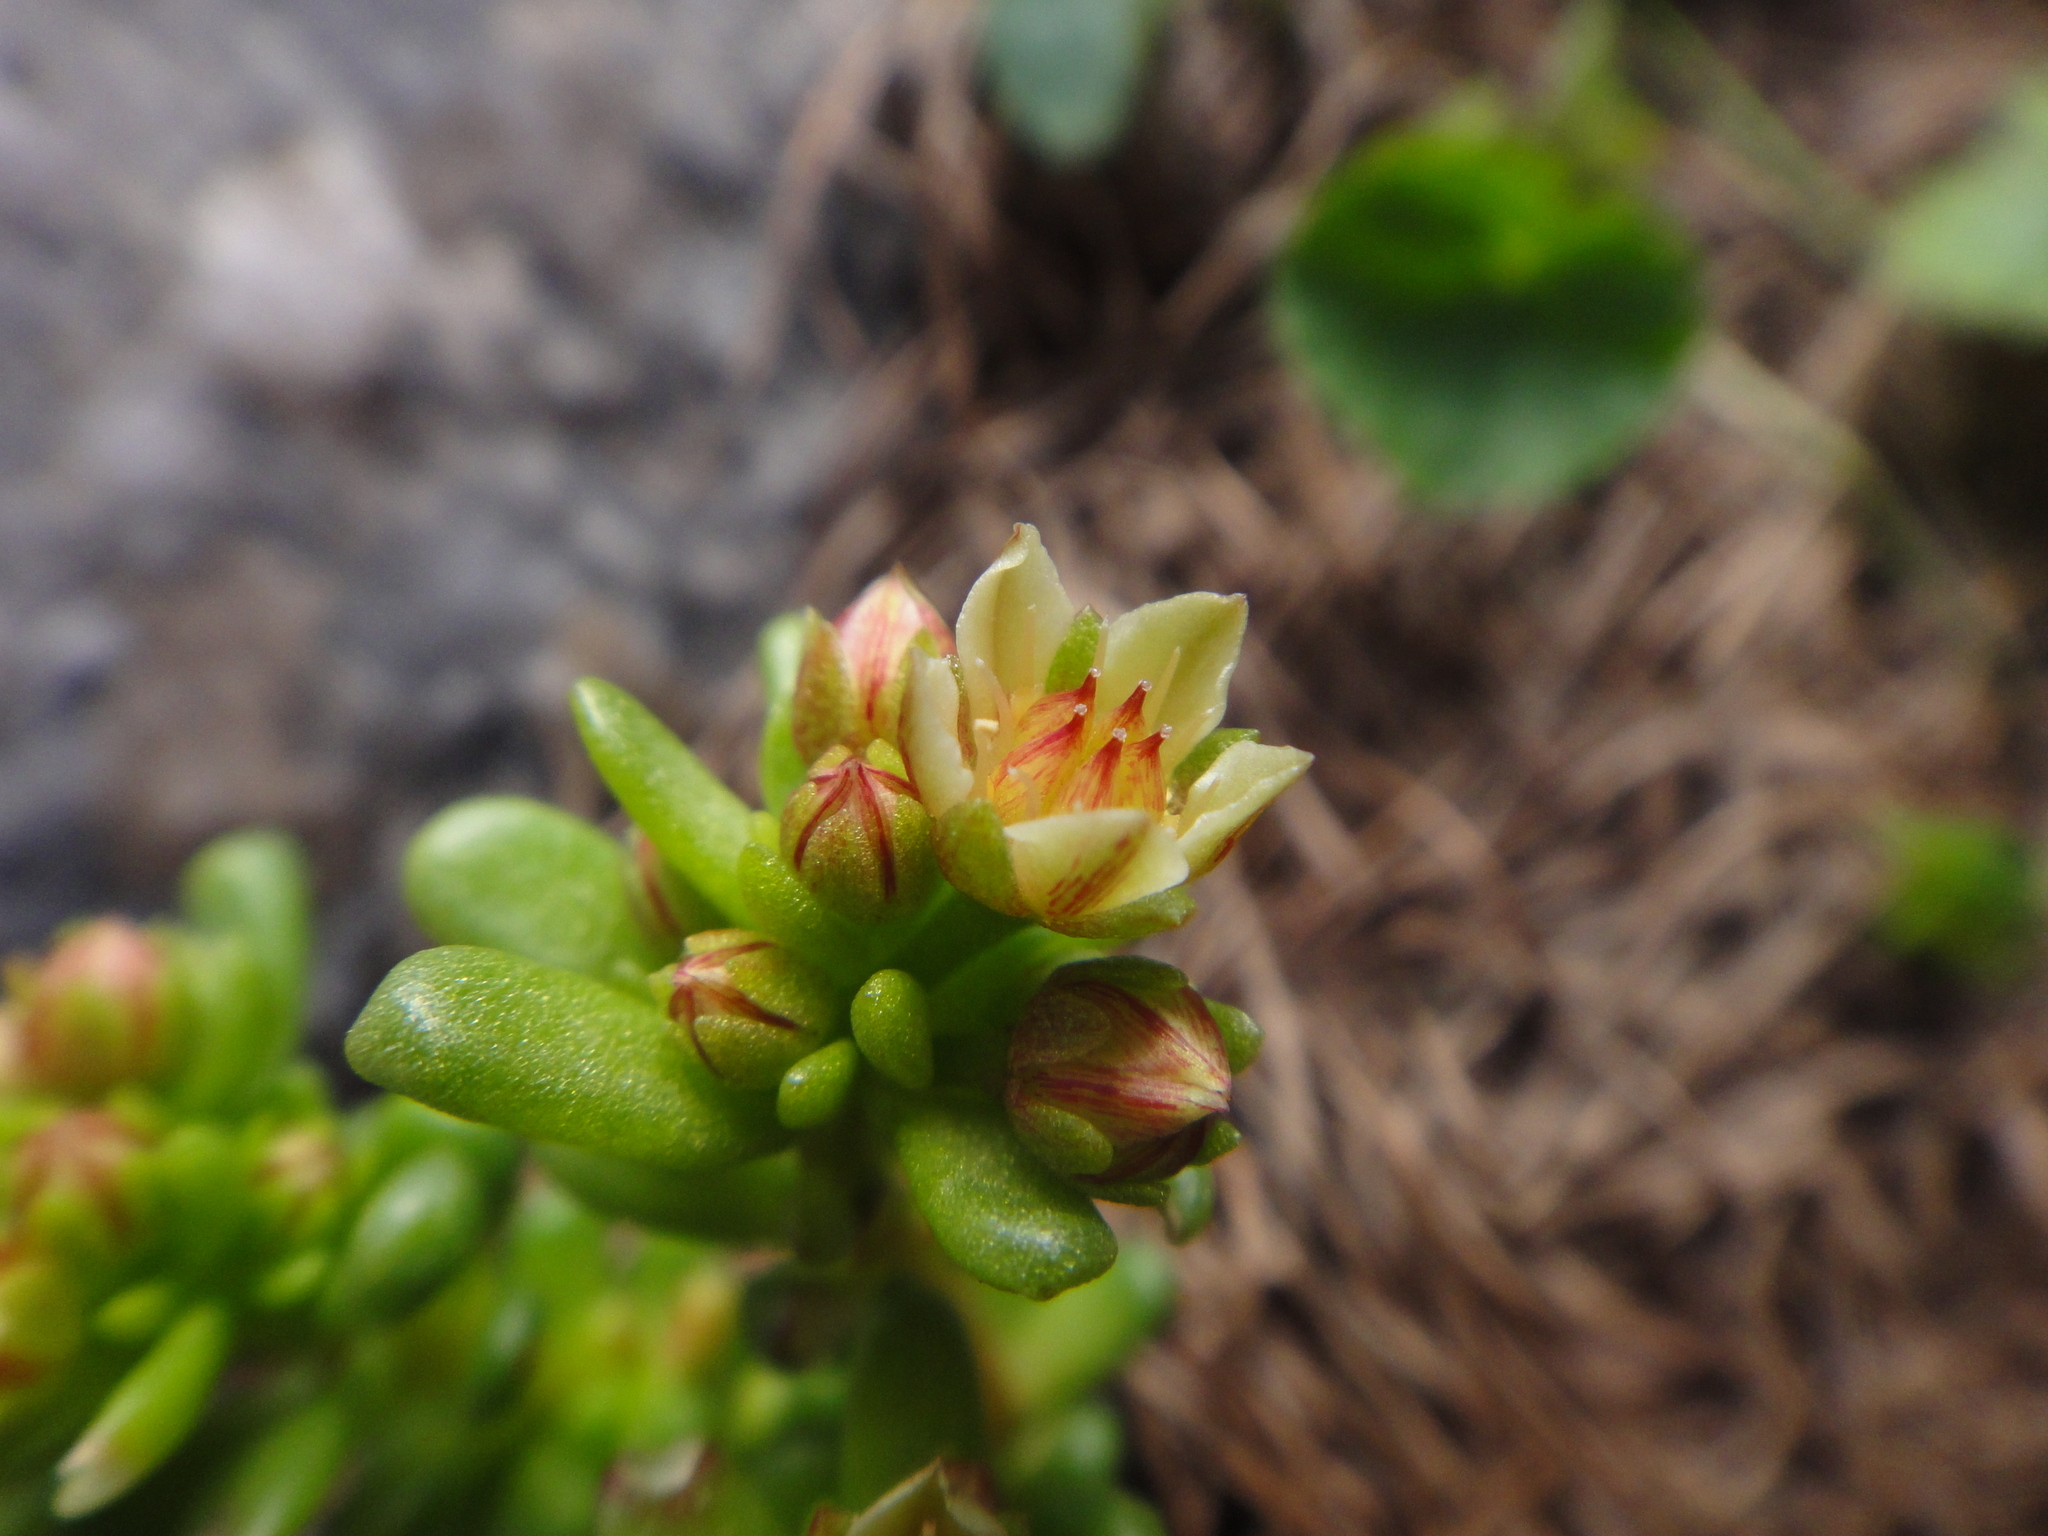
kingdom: Plantae
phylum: Tracheophyta
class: Magnoliopsida
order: Saxifragales
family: Crassulaceae
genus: Sedum
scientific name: Sedum atratum
